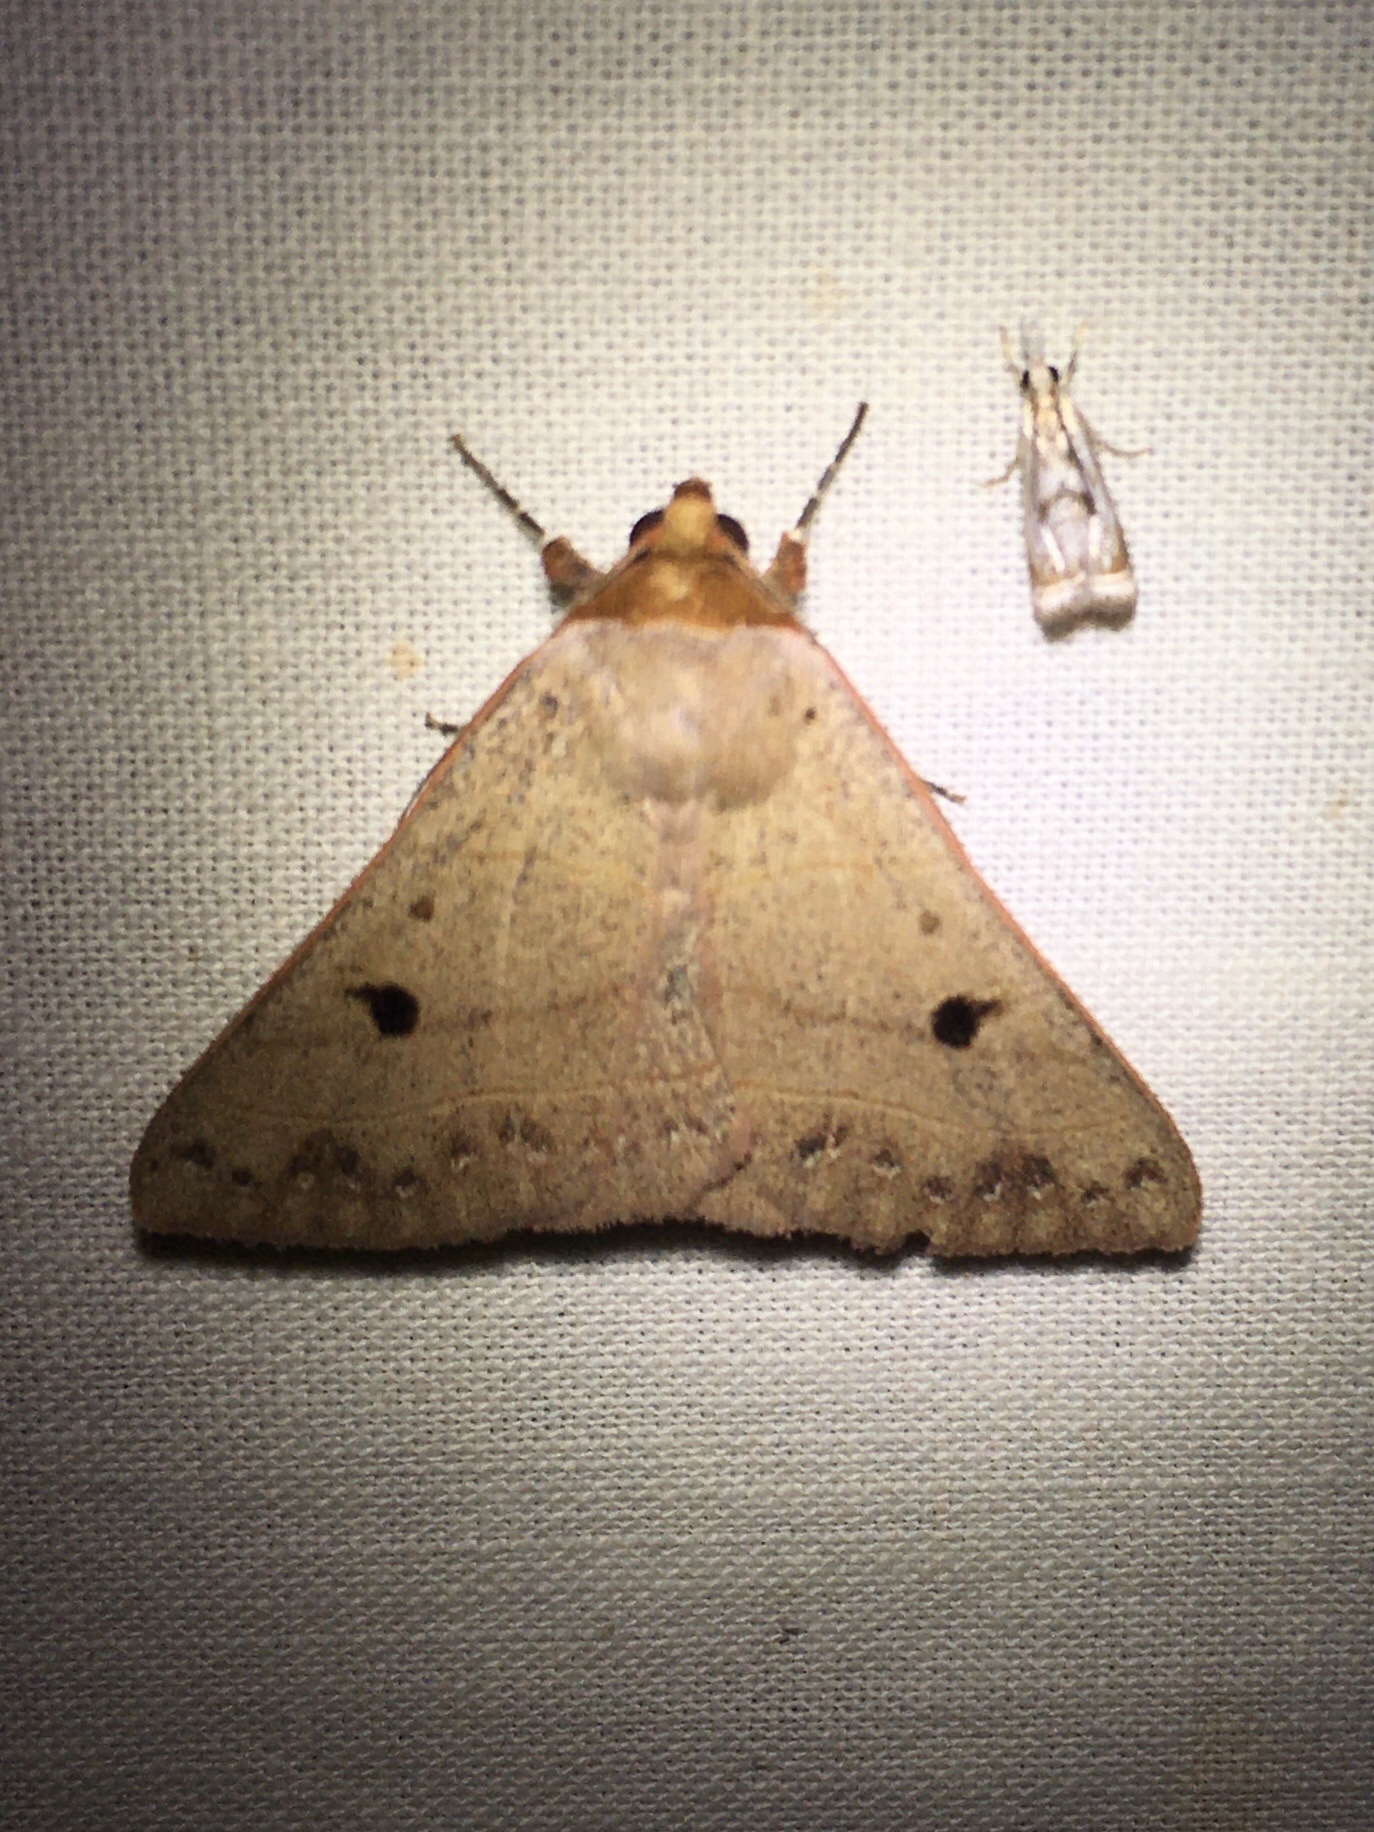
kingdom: Animalia
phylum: Arthropoda
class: Insecta
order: Lepidoptera
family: Erebidae
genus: Panopoda
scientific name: Panopoda rufimargo
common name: Red-lined panopoda moth
